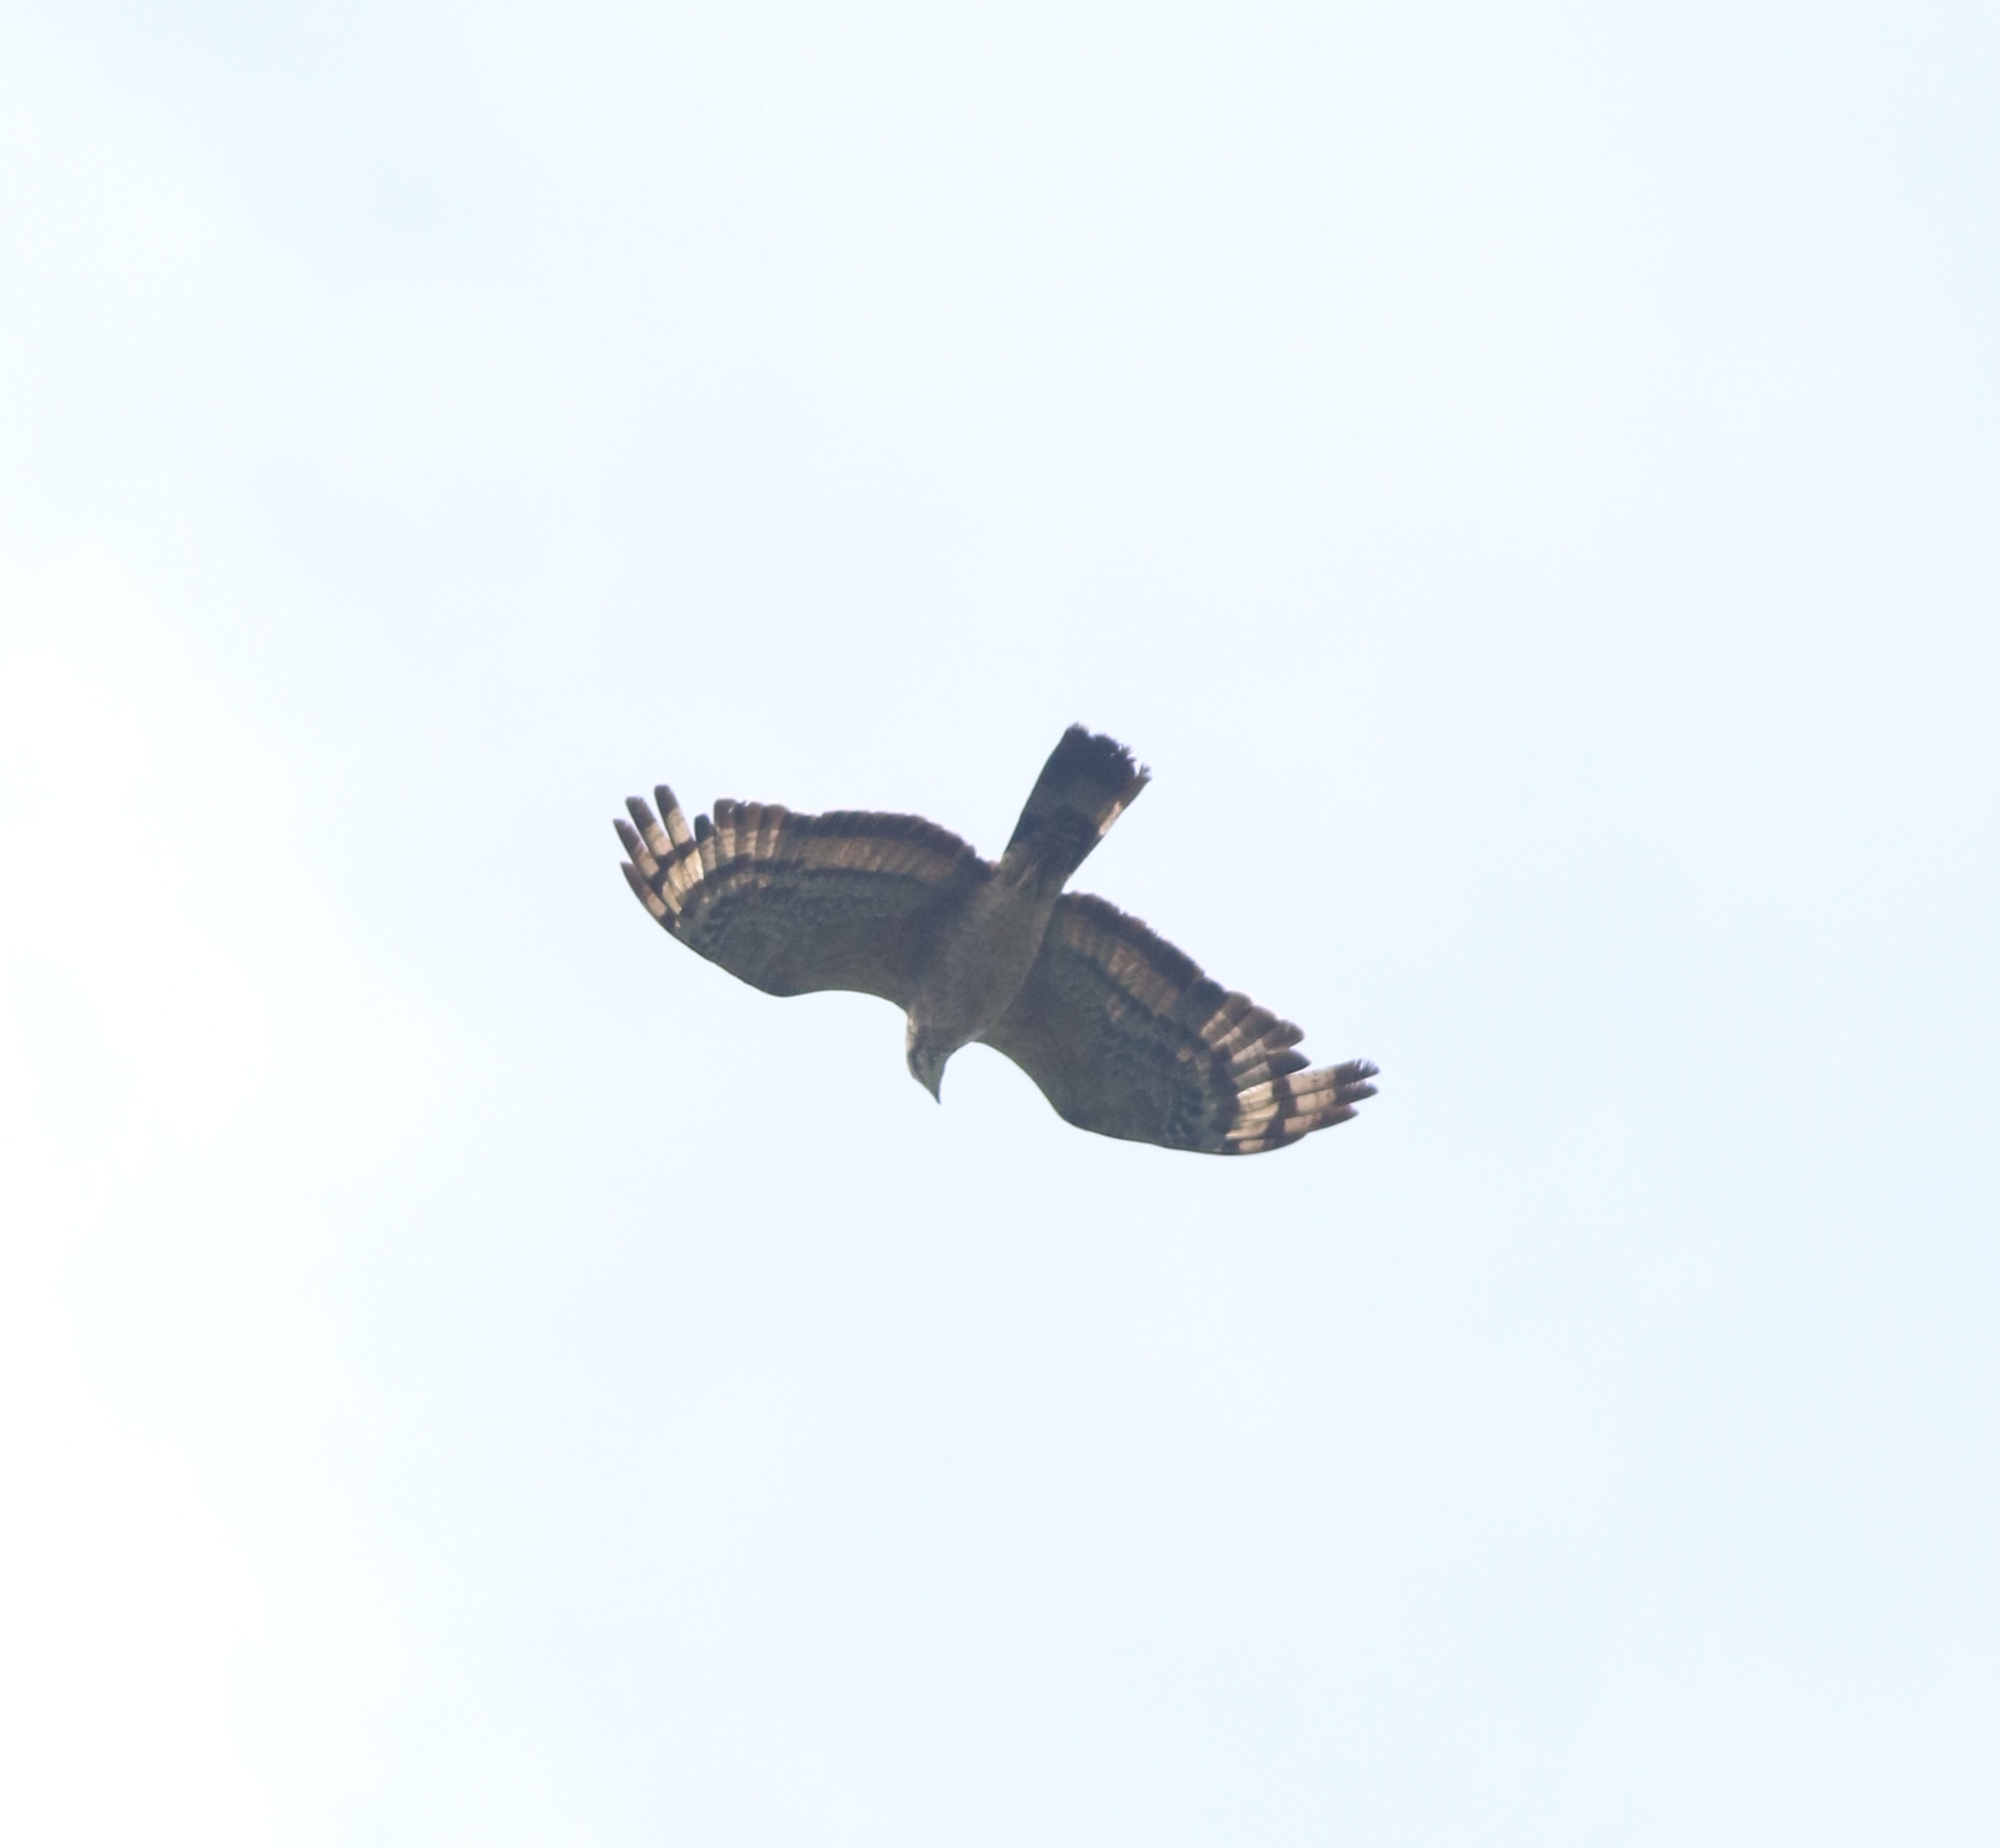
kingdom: Animalia
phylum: Chordata
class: Aves
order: Accipitriformes
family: Accipitridae
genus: Pernis
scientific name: Pernis ptilorhynchus
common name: Crested honey buzzard
